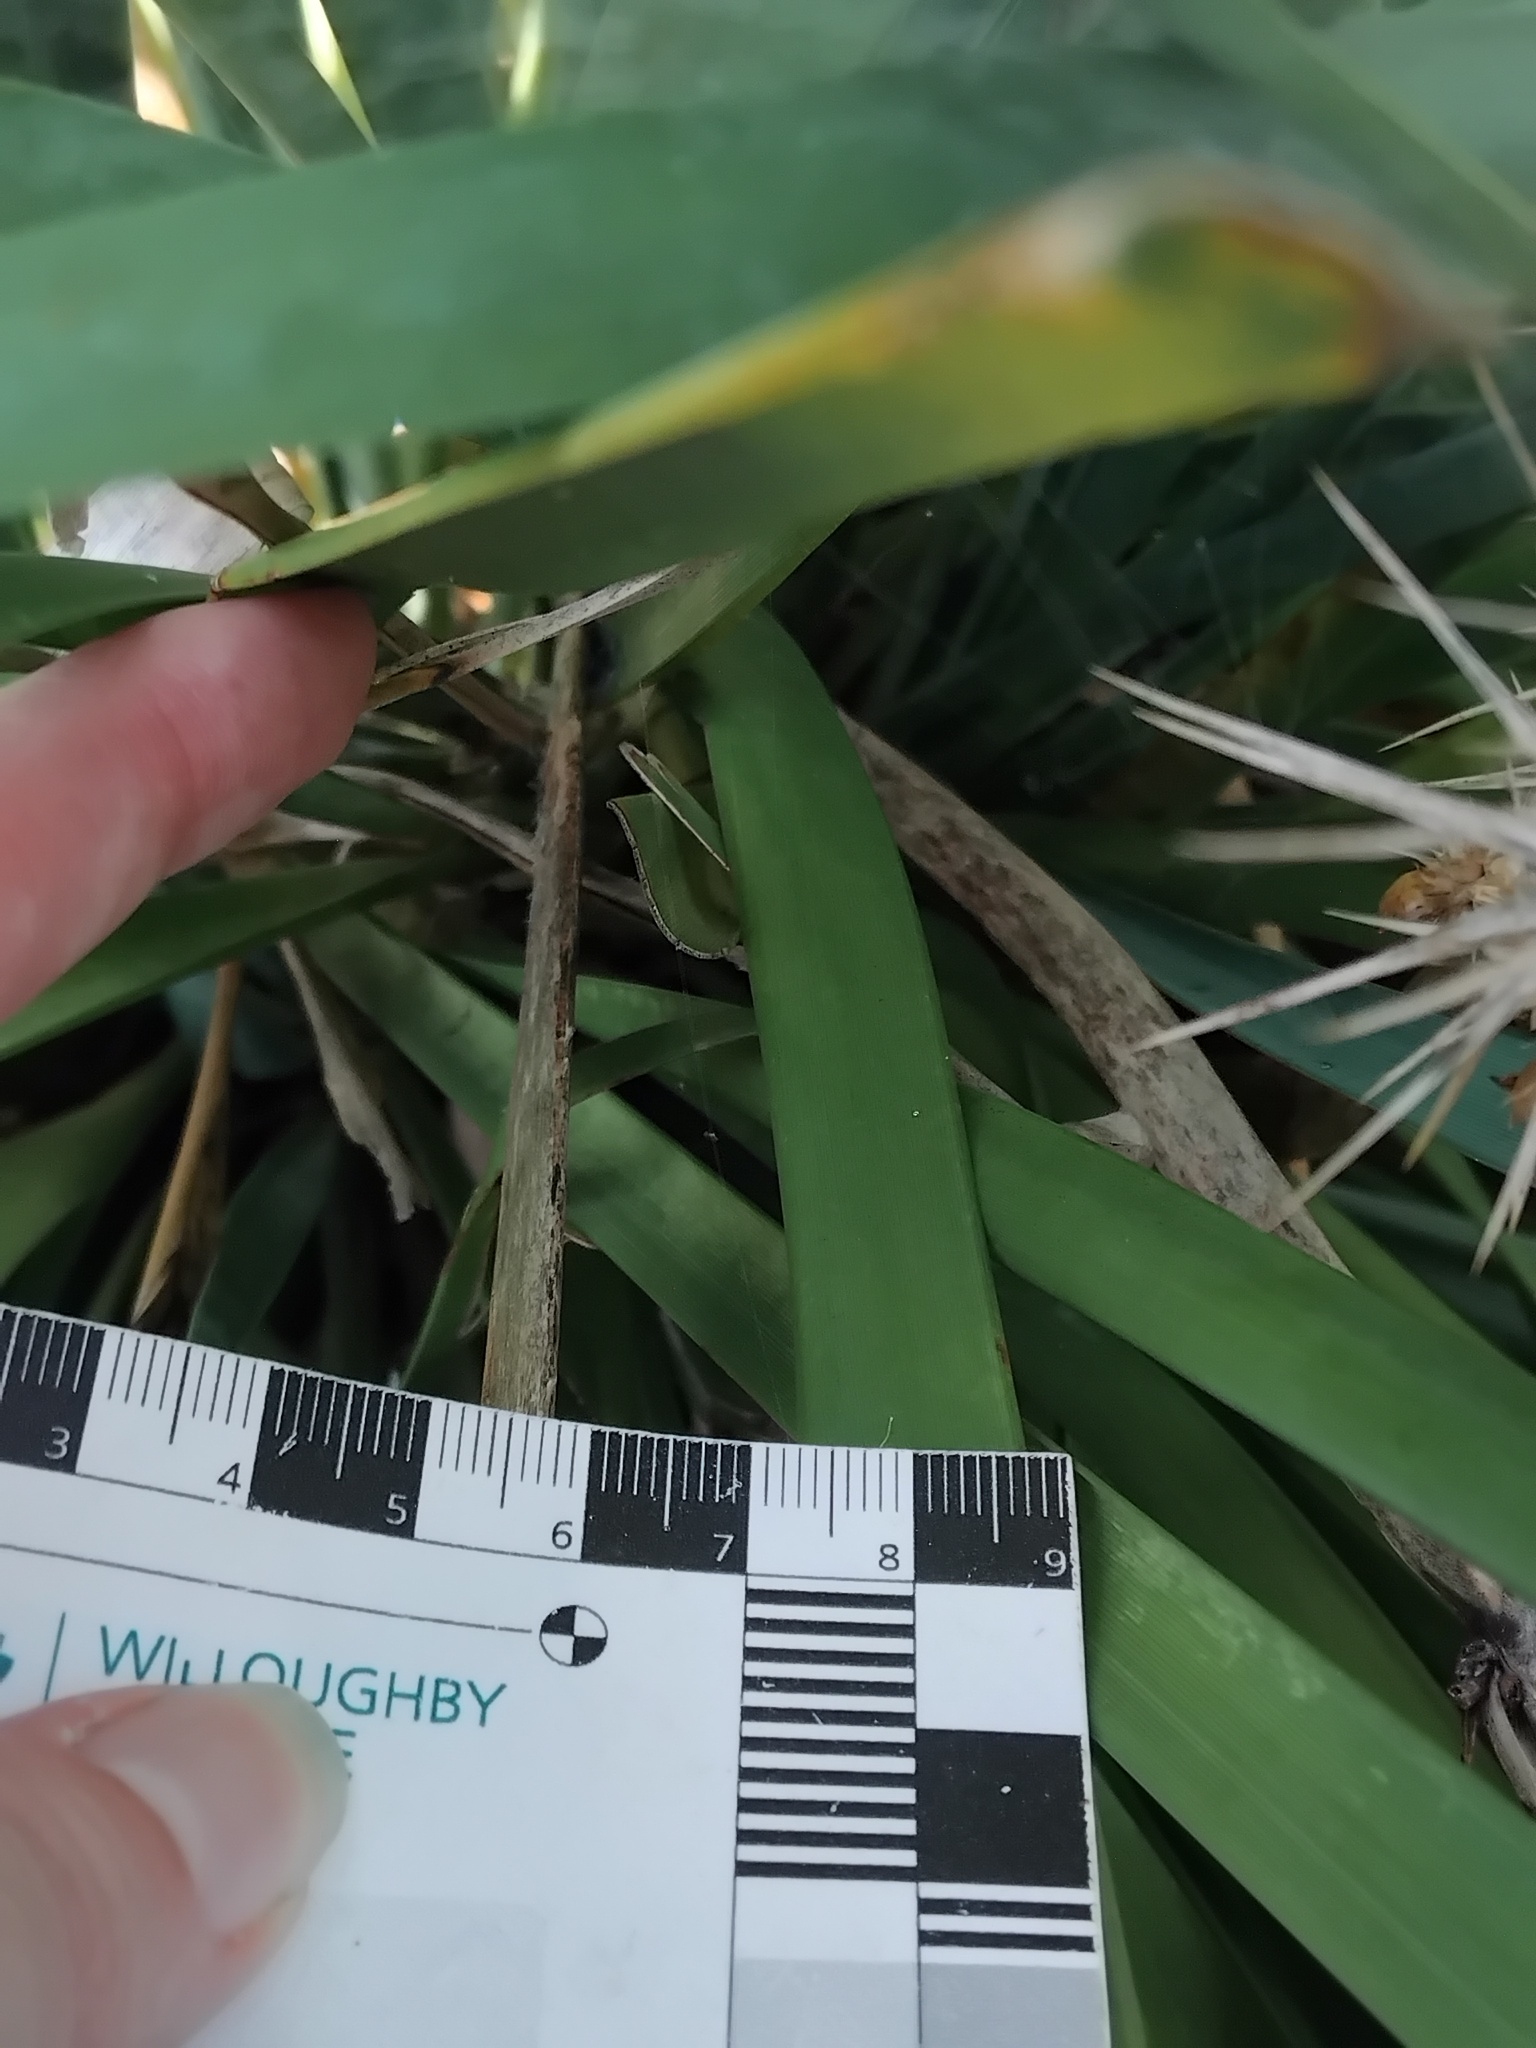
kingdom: Animalia
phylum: Chordata
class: Amphibia
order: Anura
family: Pelodryadidae
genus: Ranoidea
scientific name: Ranoidea aurea
